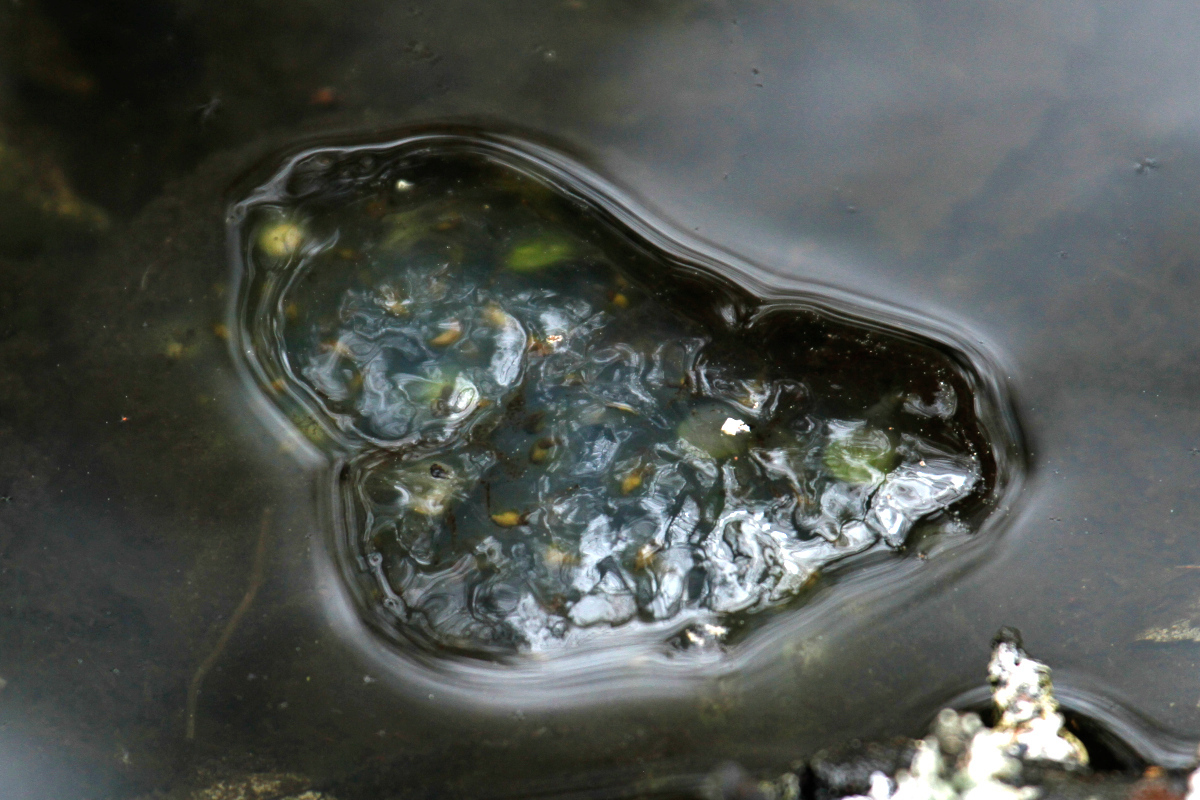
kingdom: Animalia
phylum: Chordata
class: Amphibia
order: Caudata
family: Ambystomatidae
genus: Ambystoma
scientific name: Ambystoma maculatum
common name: Spotted salamander
